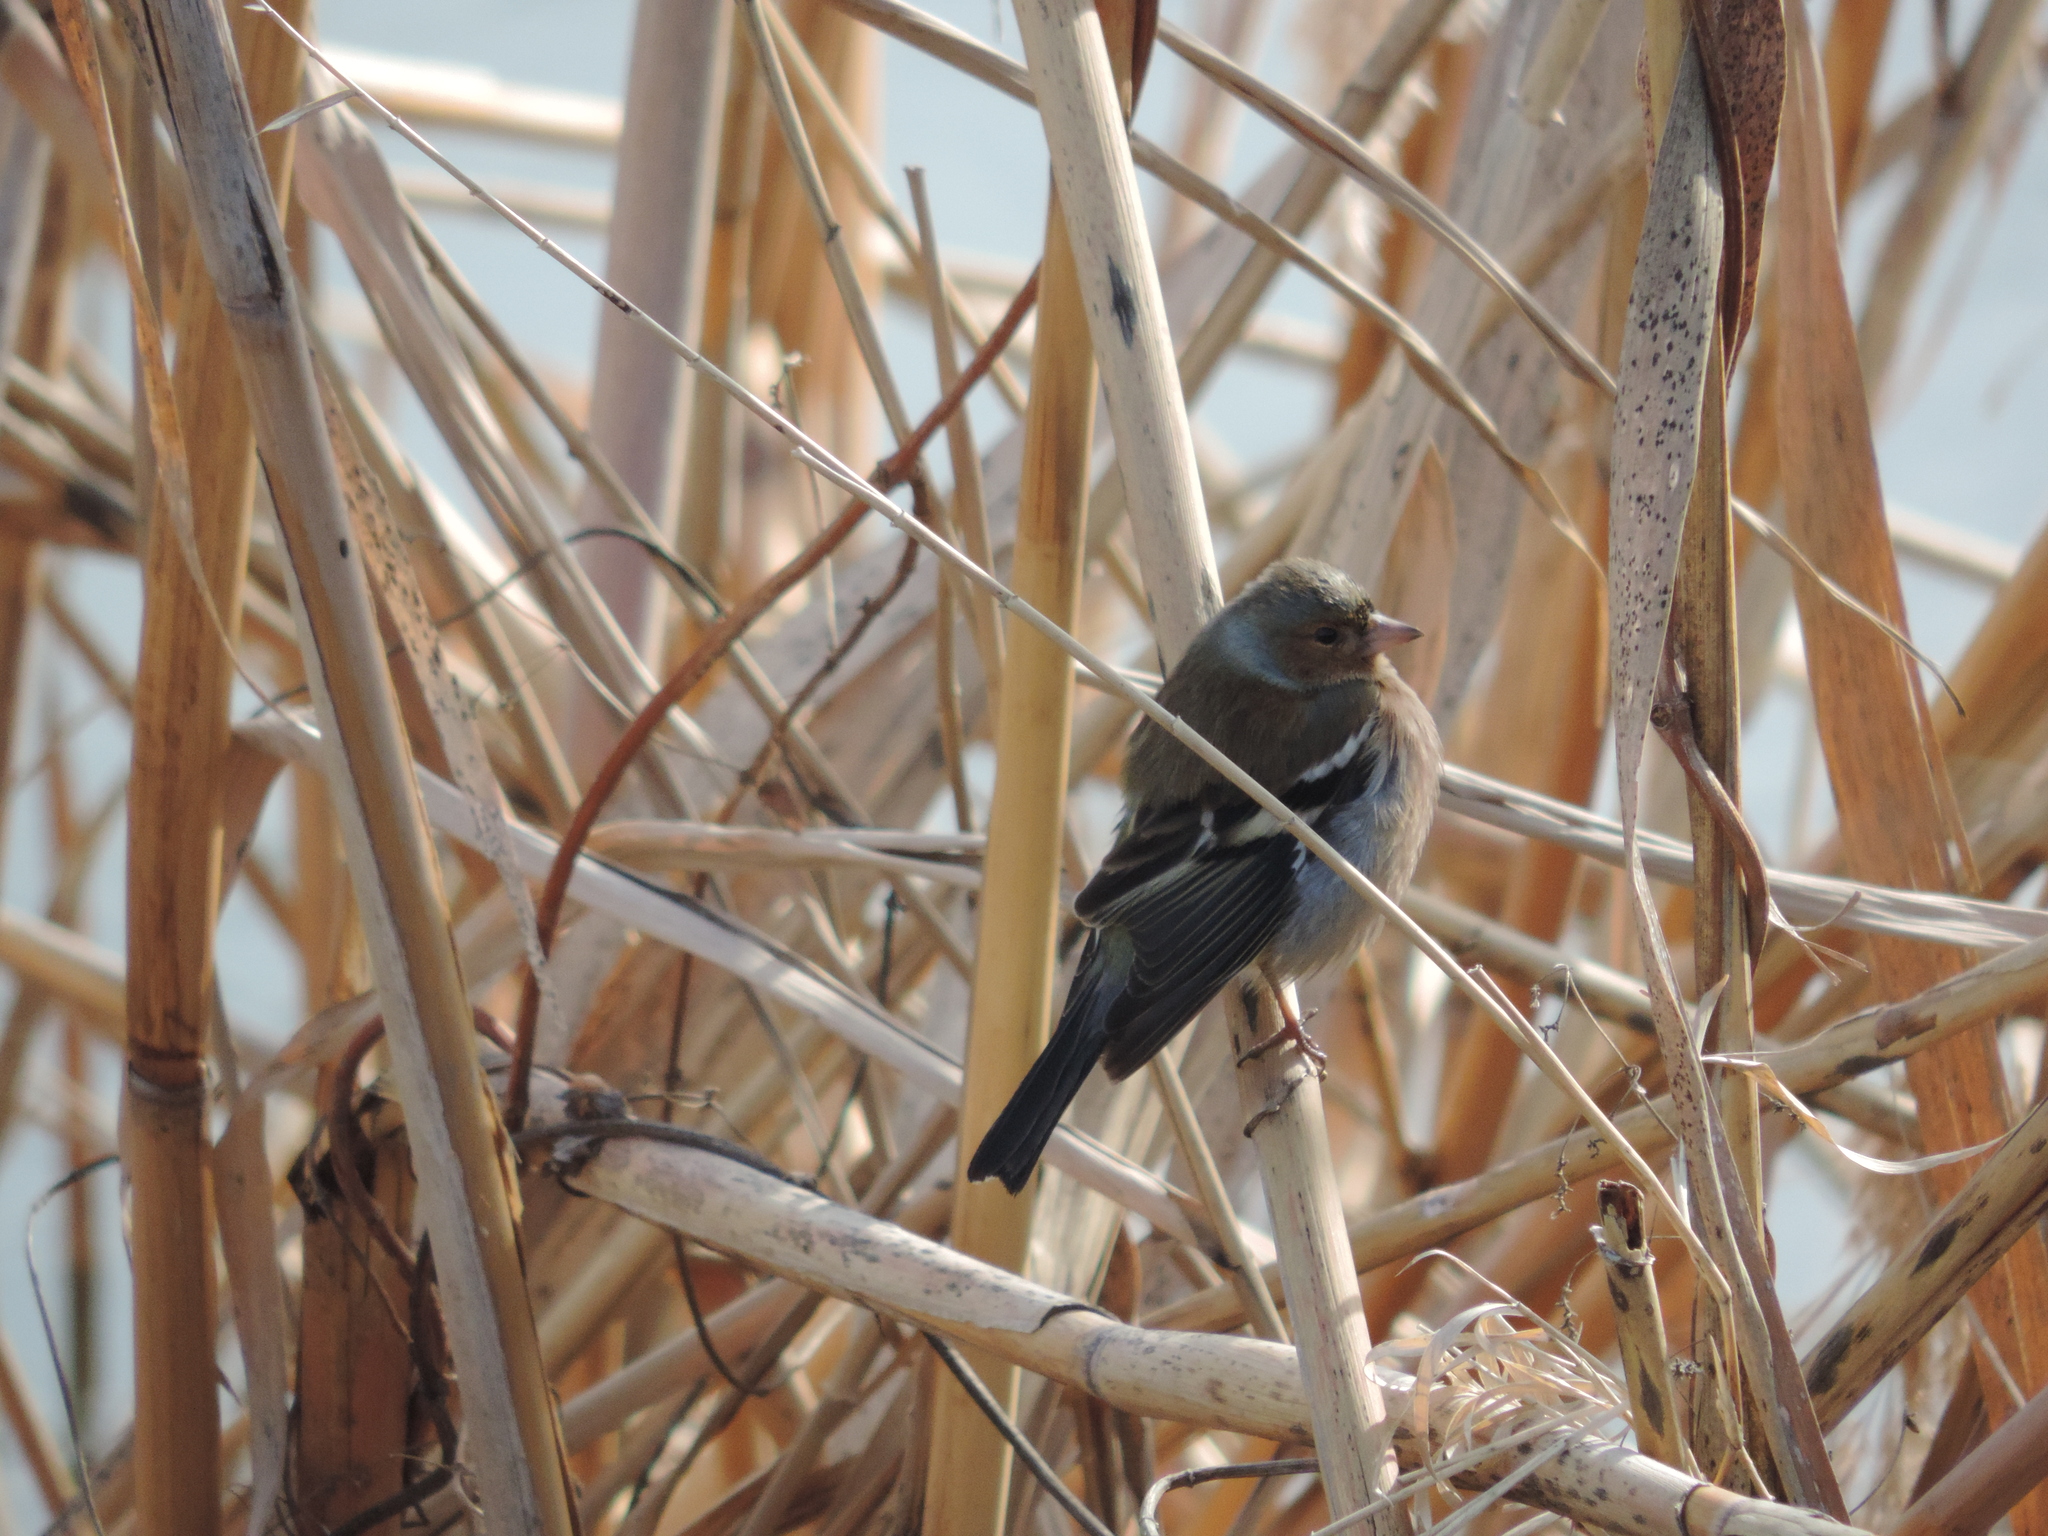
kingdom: Animalia
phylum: Chordata
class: Aves
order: Passeriformes
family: Fringillidae
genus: Fringilla
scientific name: Fringilla coelebs
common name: Common chaffinch
